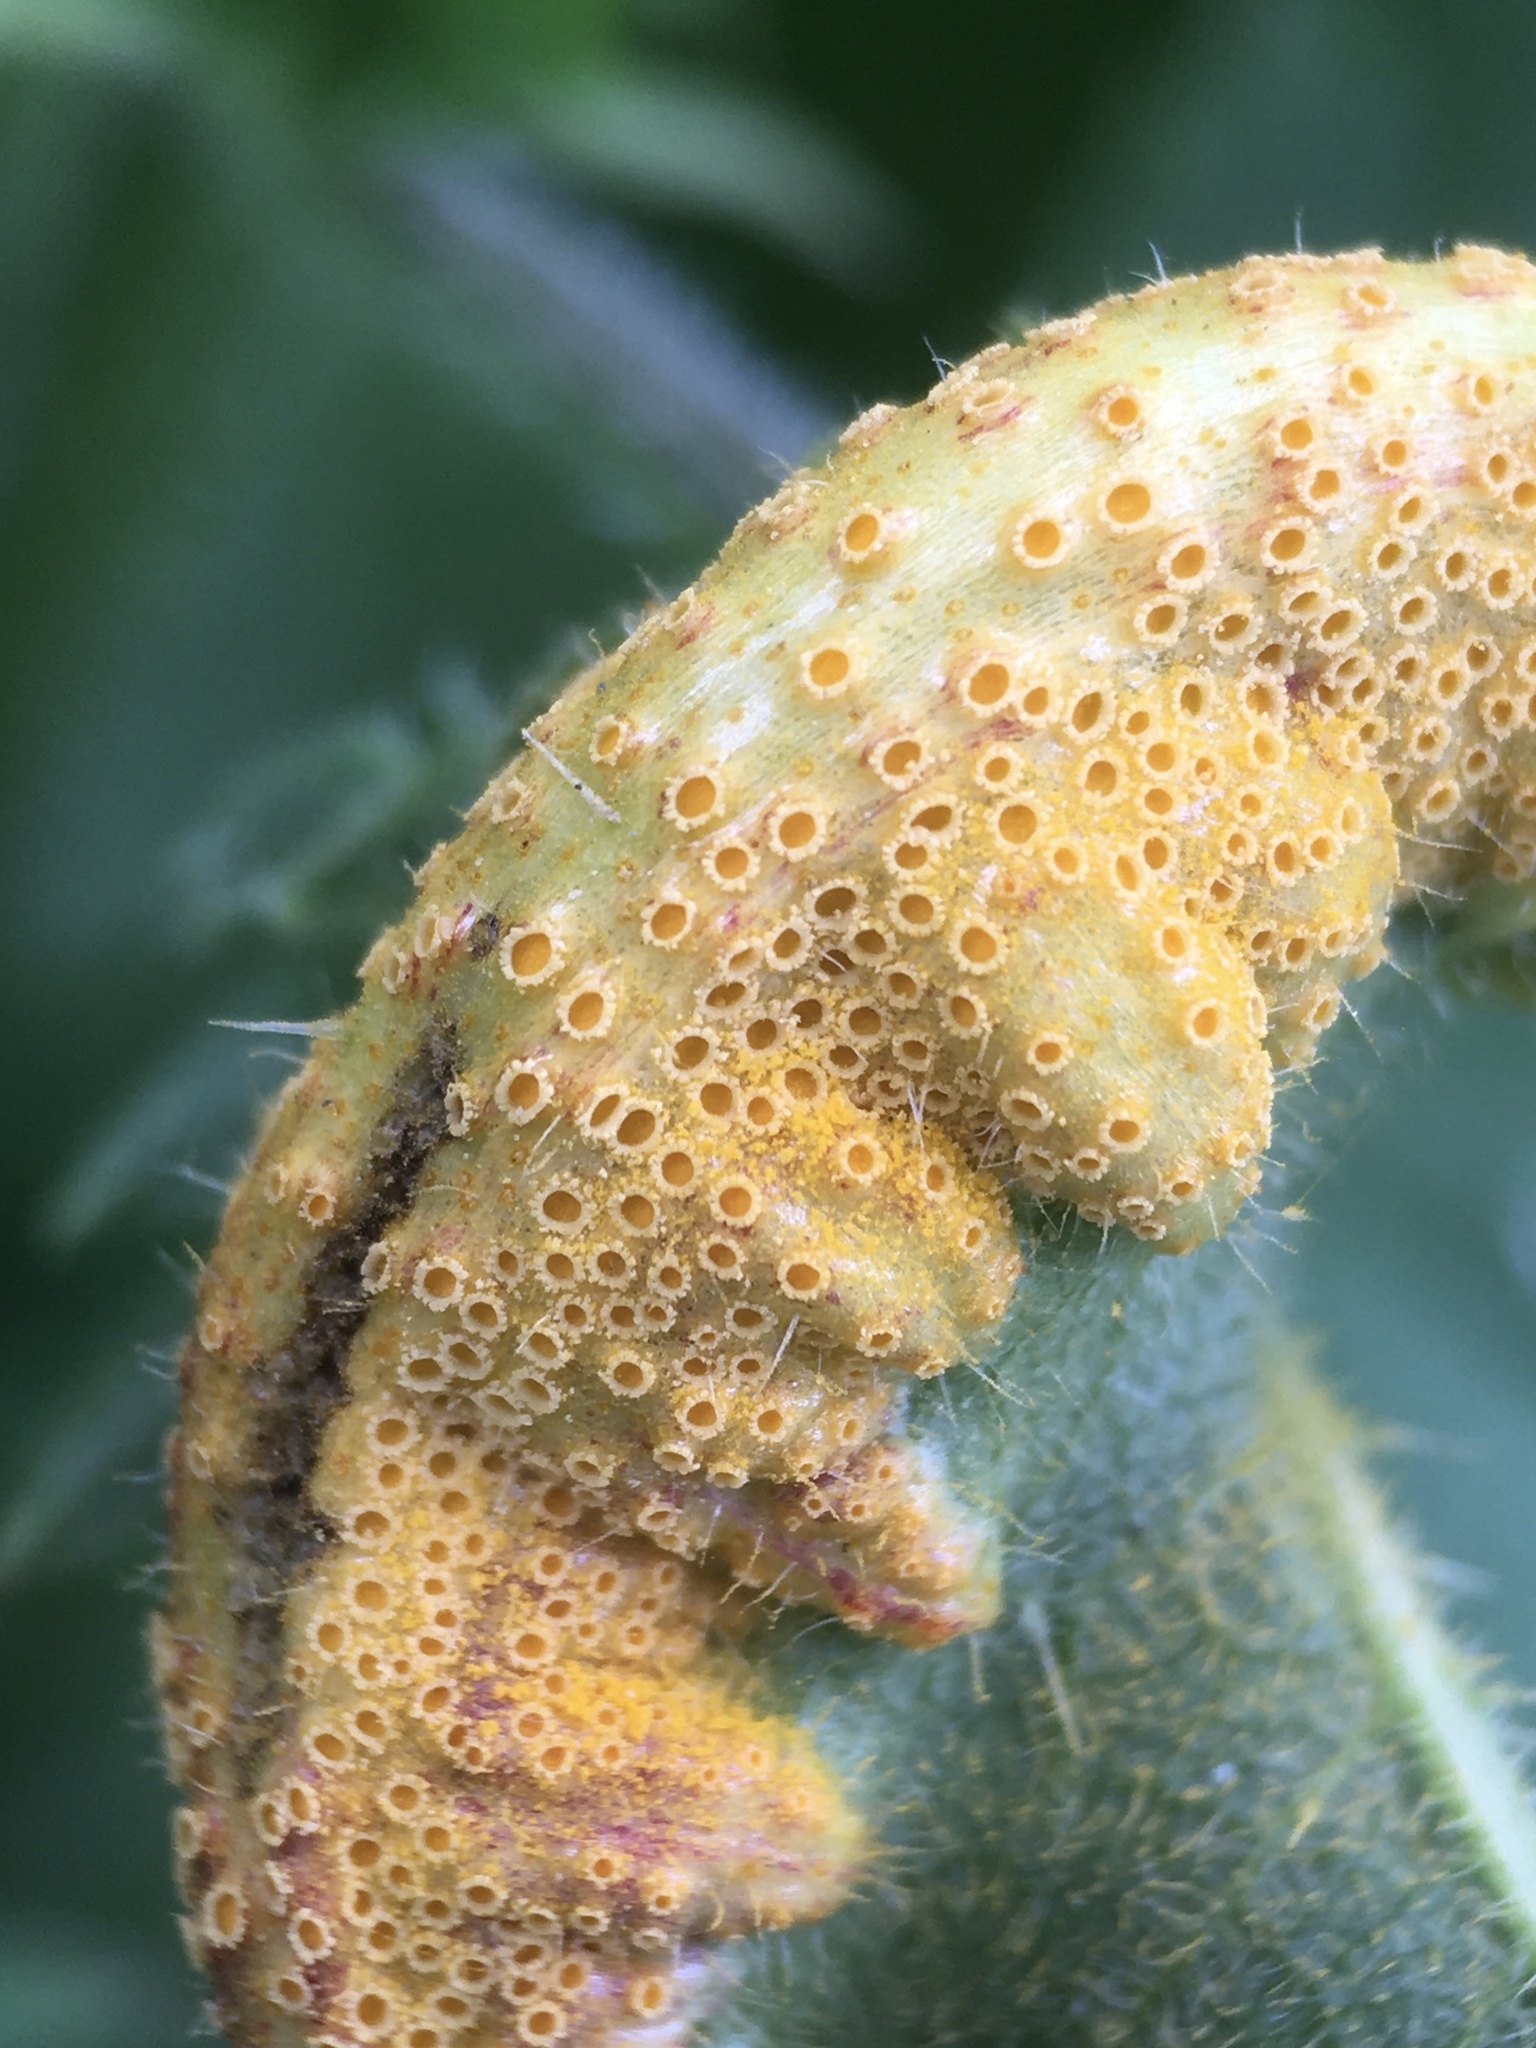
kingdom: Fungi
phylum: Basidiomycota
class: Pucciniomycetes
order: Pucciniales
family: Pucciniaceae
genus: Puccinia
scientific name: Puccinia urticata
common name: Nettle clustercup rust fungus
